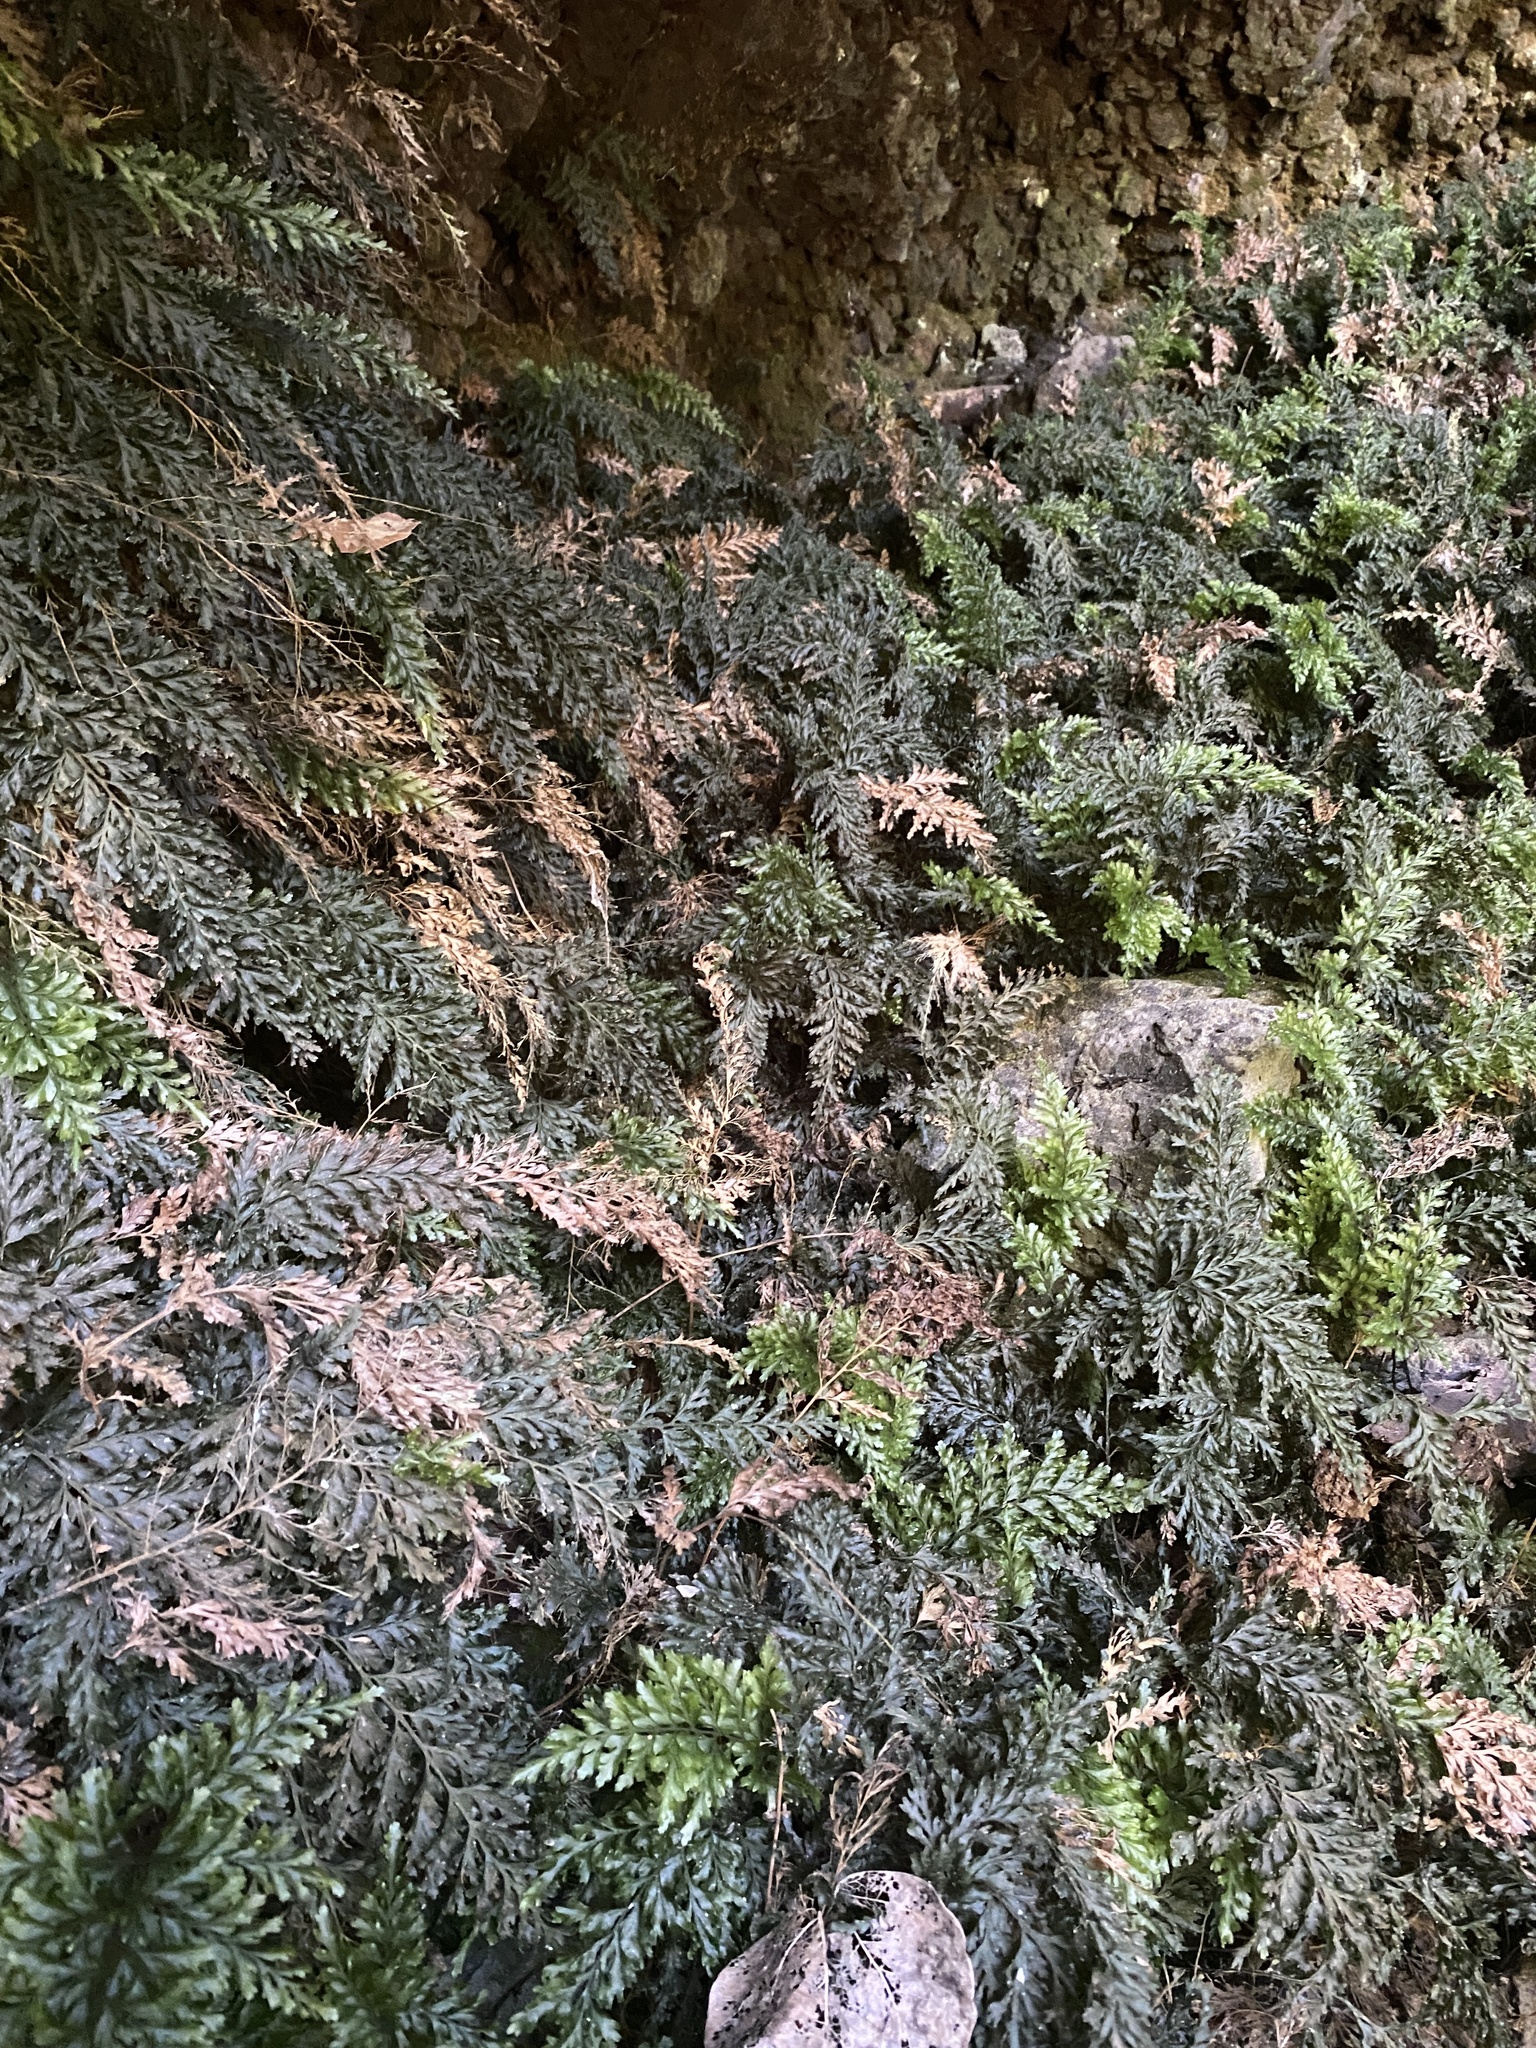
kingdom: Plantae
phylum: Tracheophyta
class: Polypodiopsida
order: Hymenophyllales
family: Hymenophyllaceae
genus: Vandenboschia
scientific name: Vandenboschia speciosa
